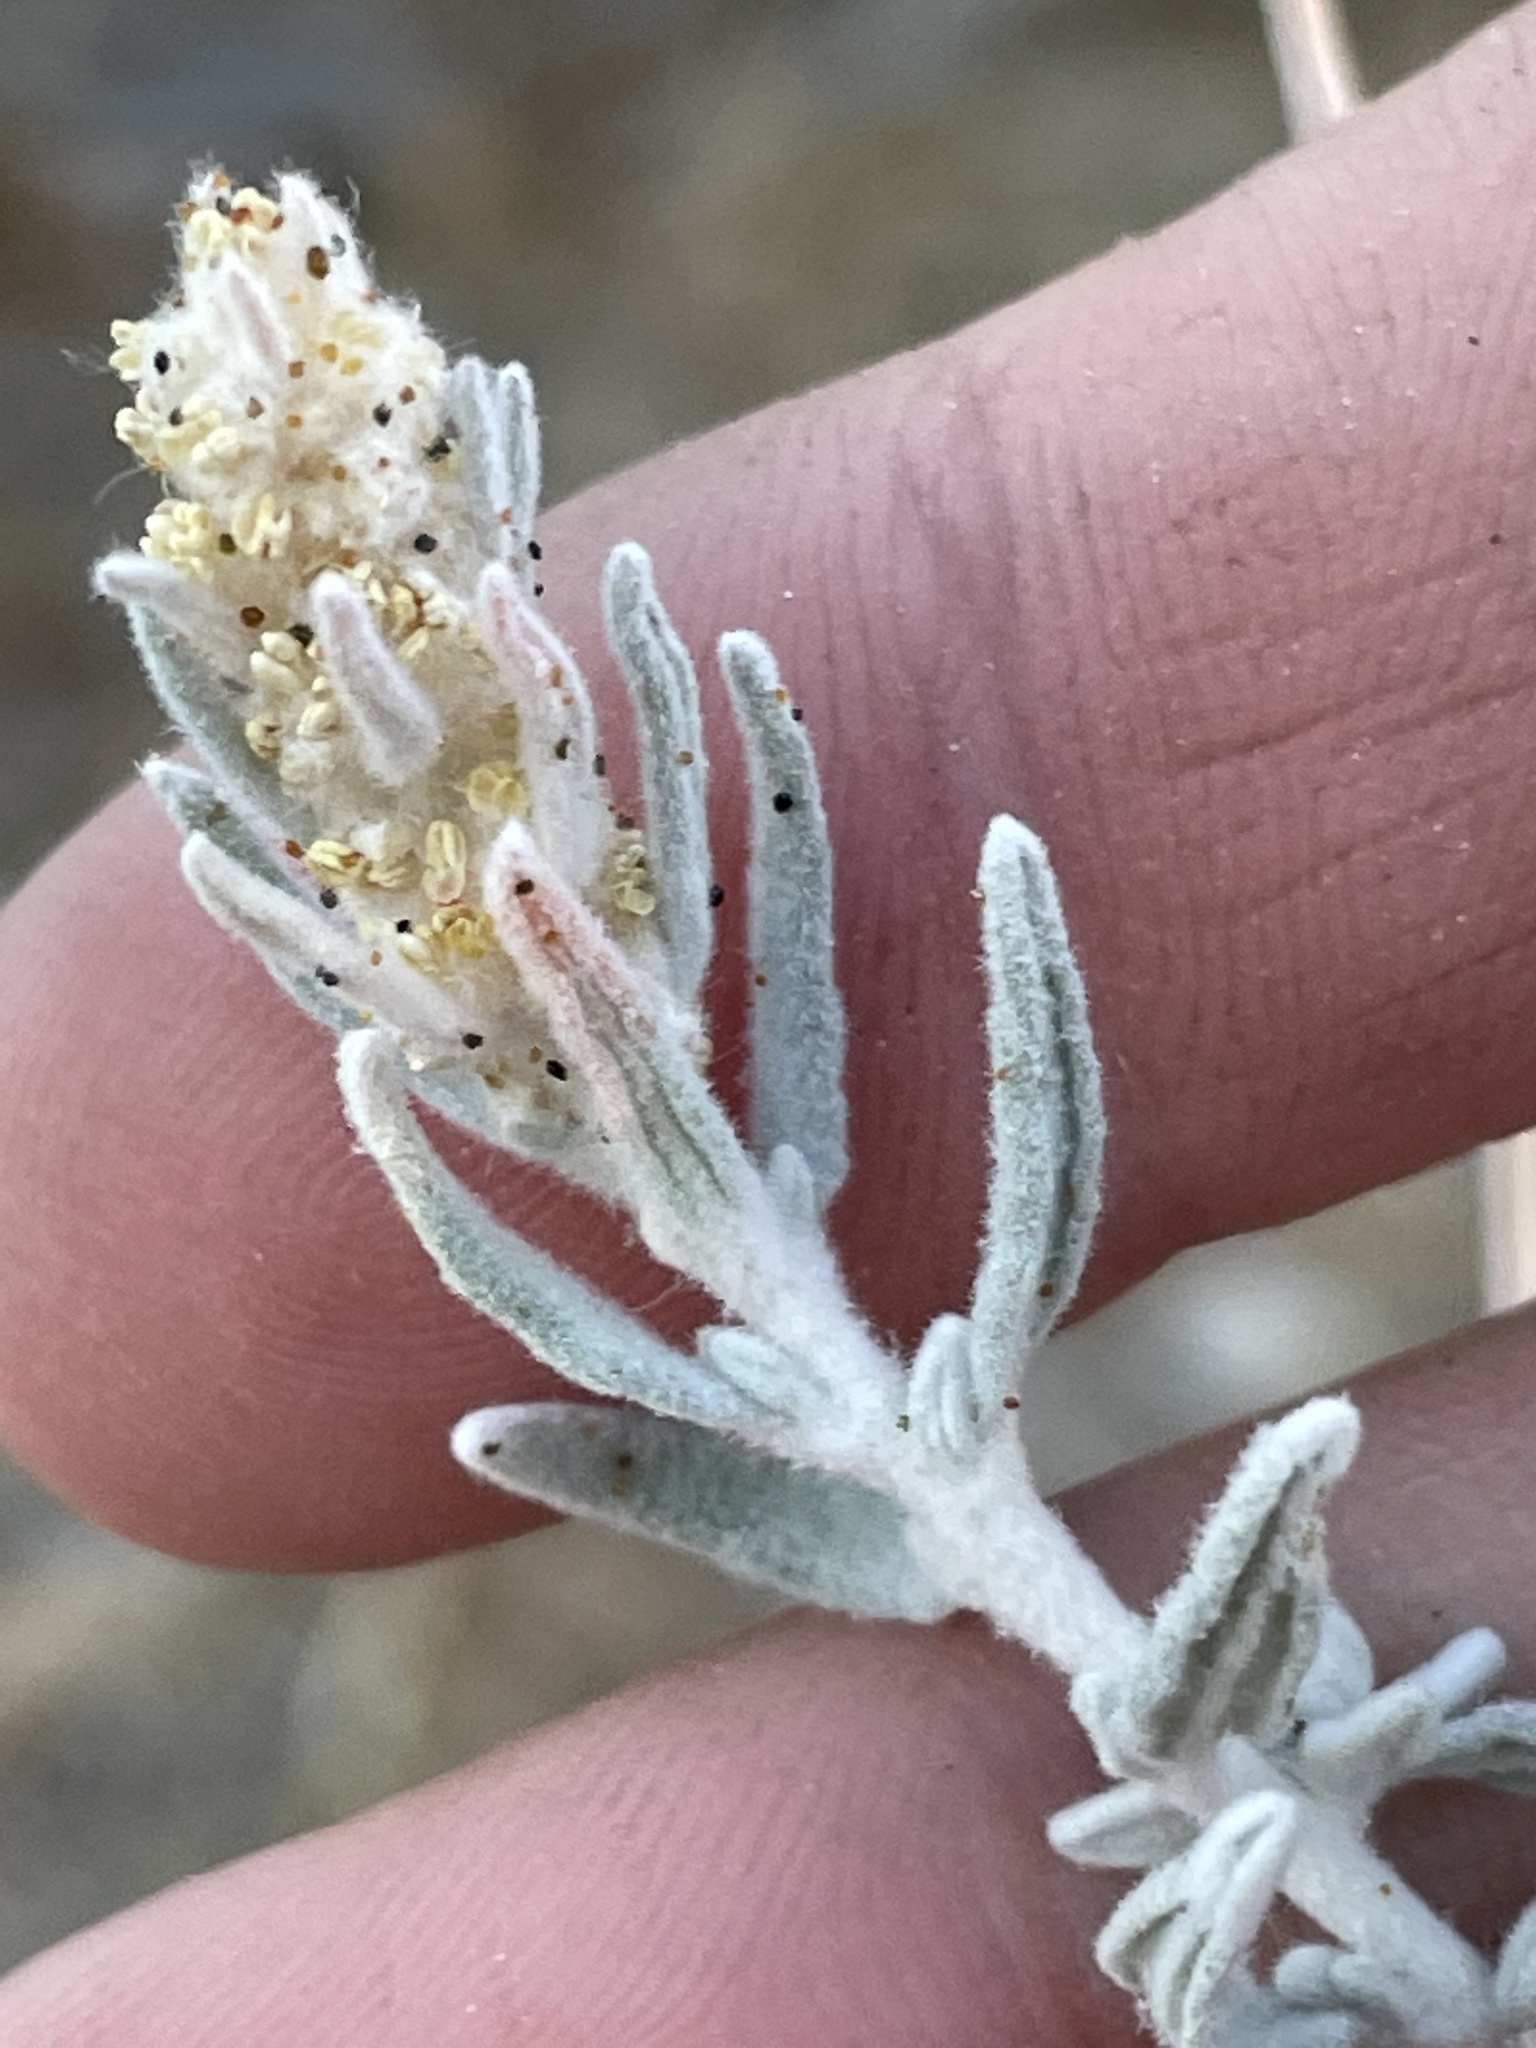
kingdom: Plantae
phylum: Tracheophyta
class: Magnoliopsida
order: Caryophyllales
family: Amaranthaceae
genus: Krascheninnikovia
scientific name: Krascheninnikovia lanata
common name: Winterfat
